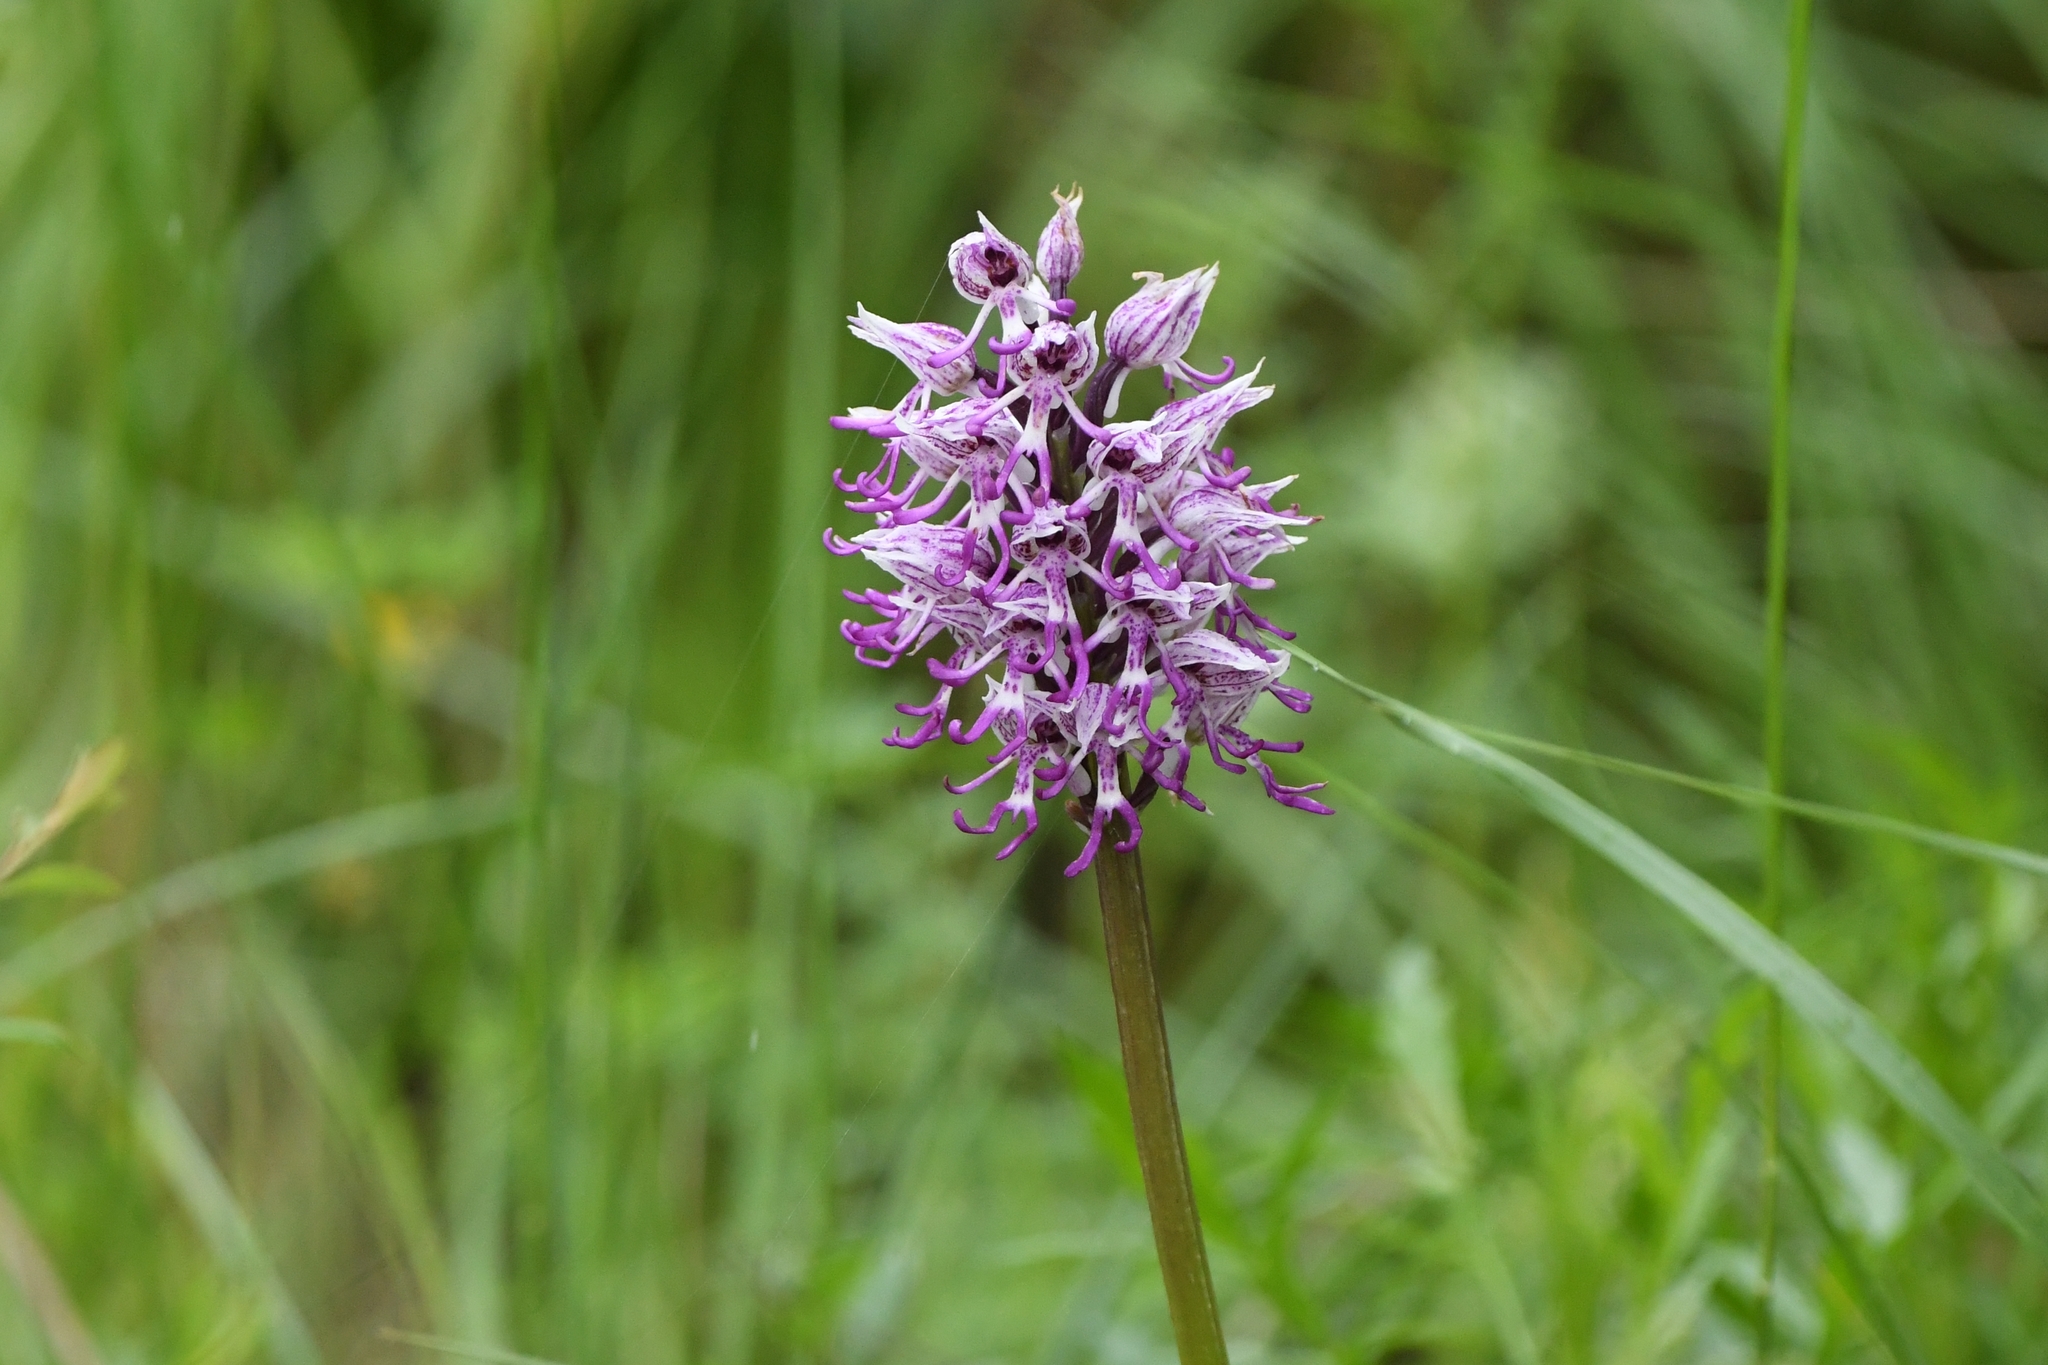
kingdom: Plantae
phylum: Tracheophyta
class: Liliopsida
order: Asparagales
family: Orchidaceae
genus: Orchis
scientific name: Orchis simia
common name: Monkey orchid
